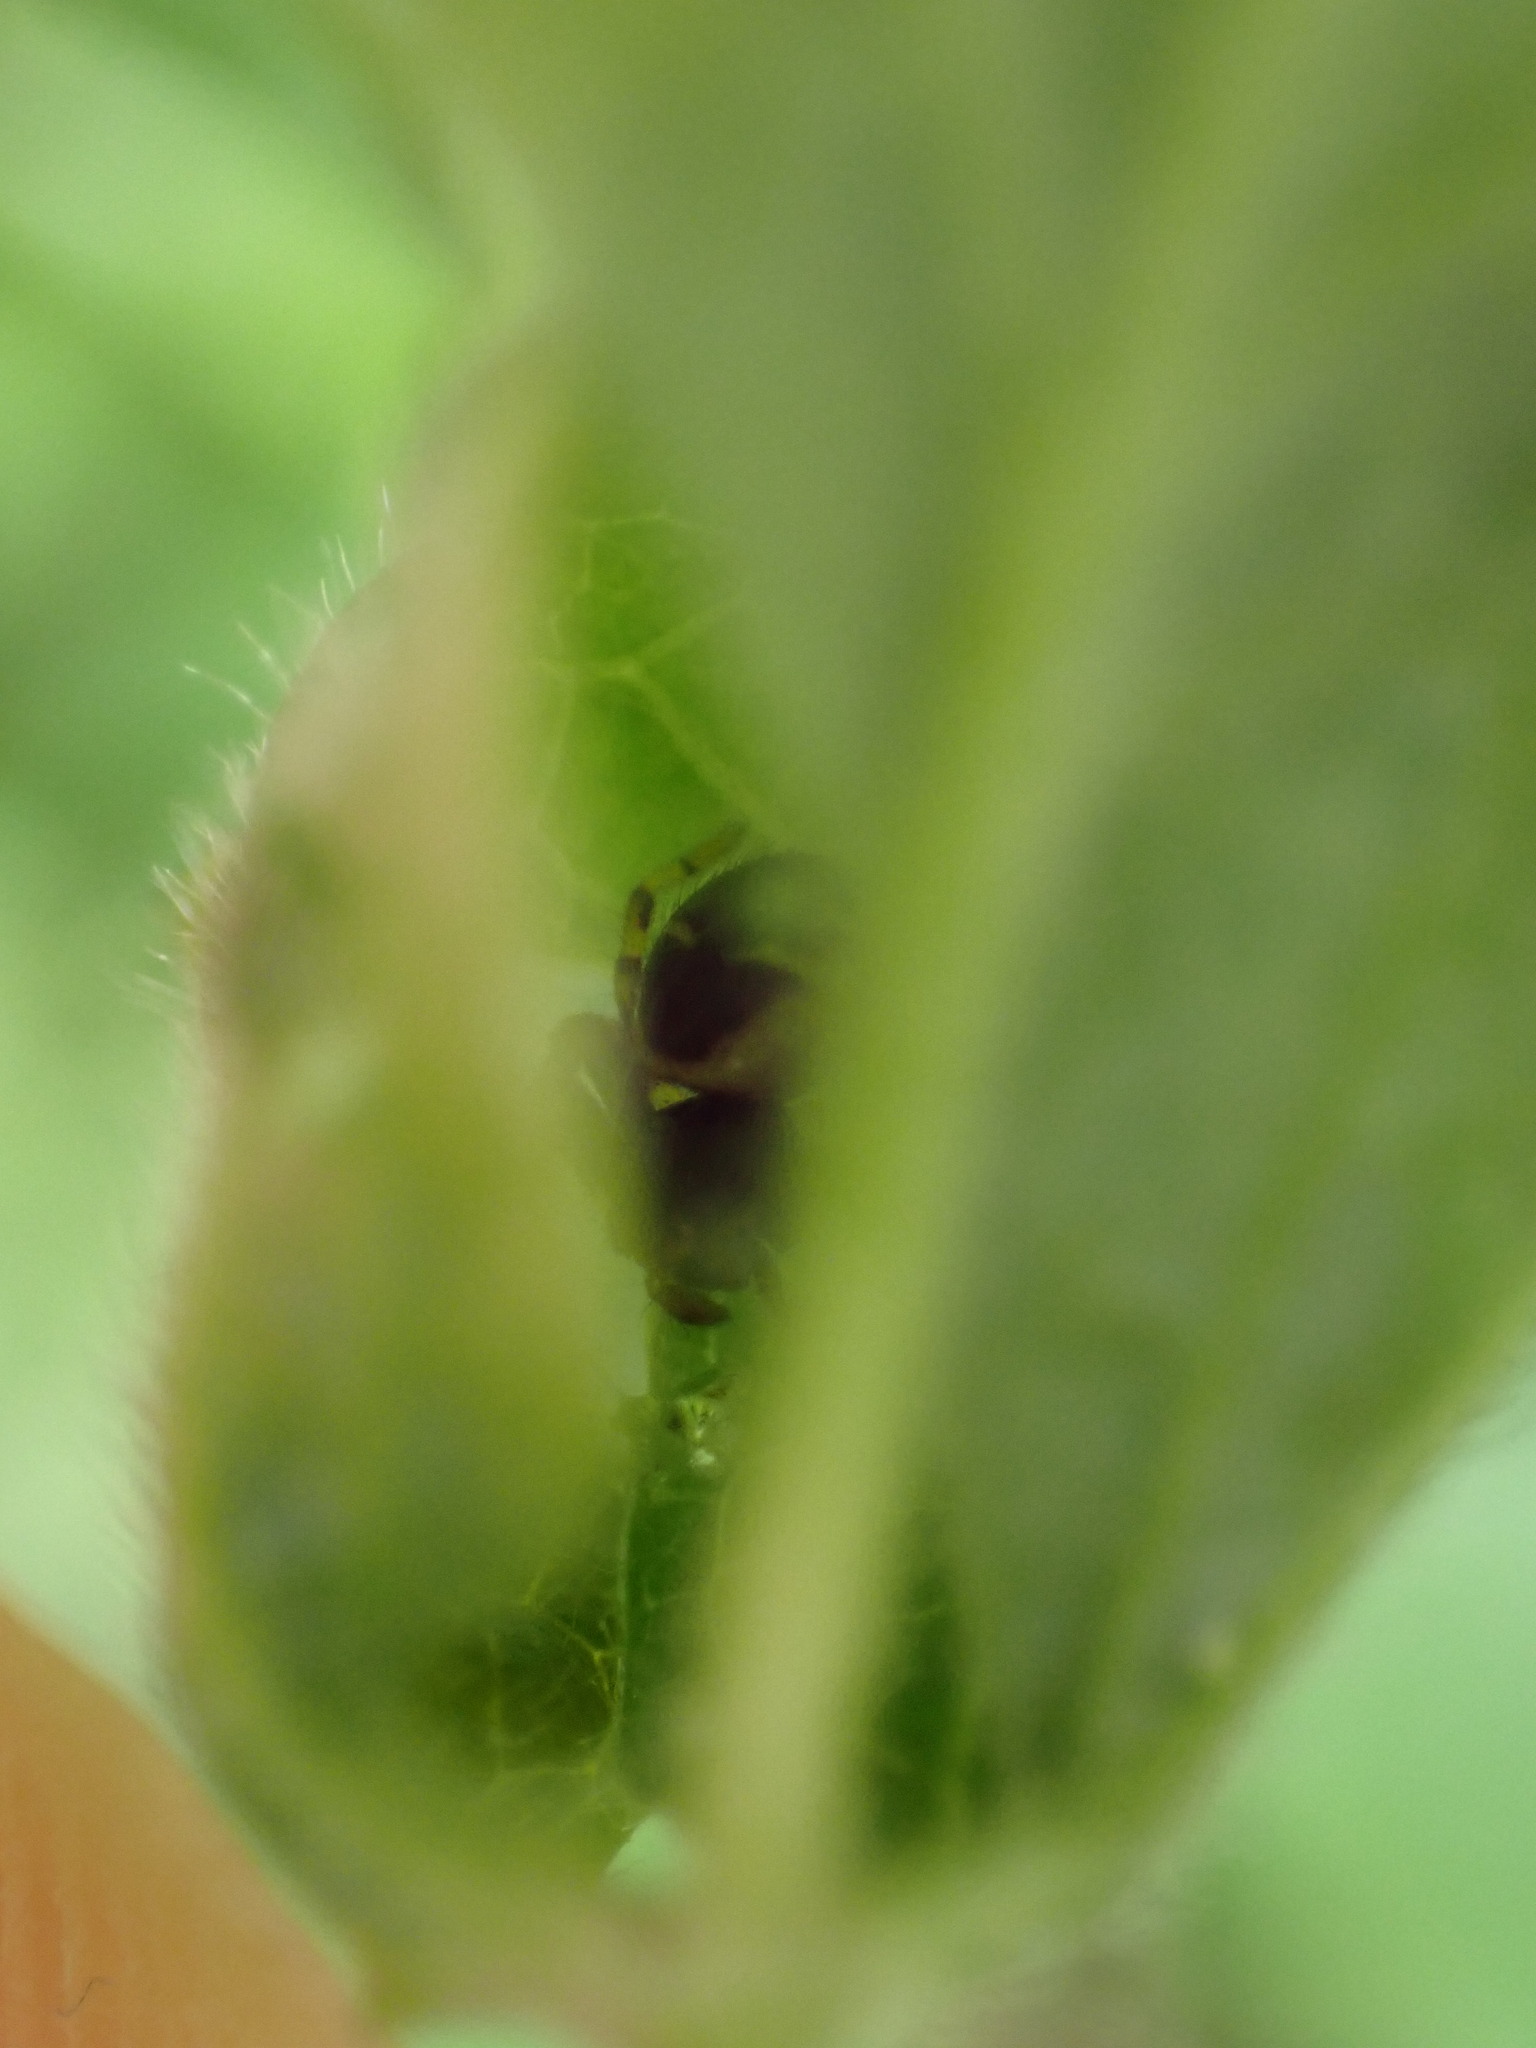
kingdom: Animalia
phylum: Arthropoda
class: Arachnida
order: Araneae
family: Thomisidae
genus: Synema
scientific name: Synema globosum
